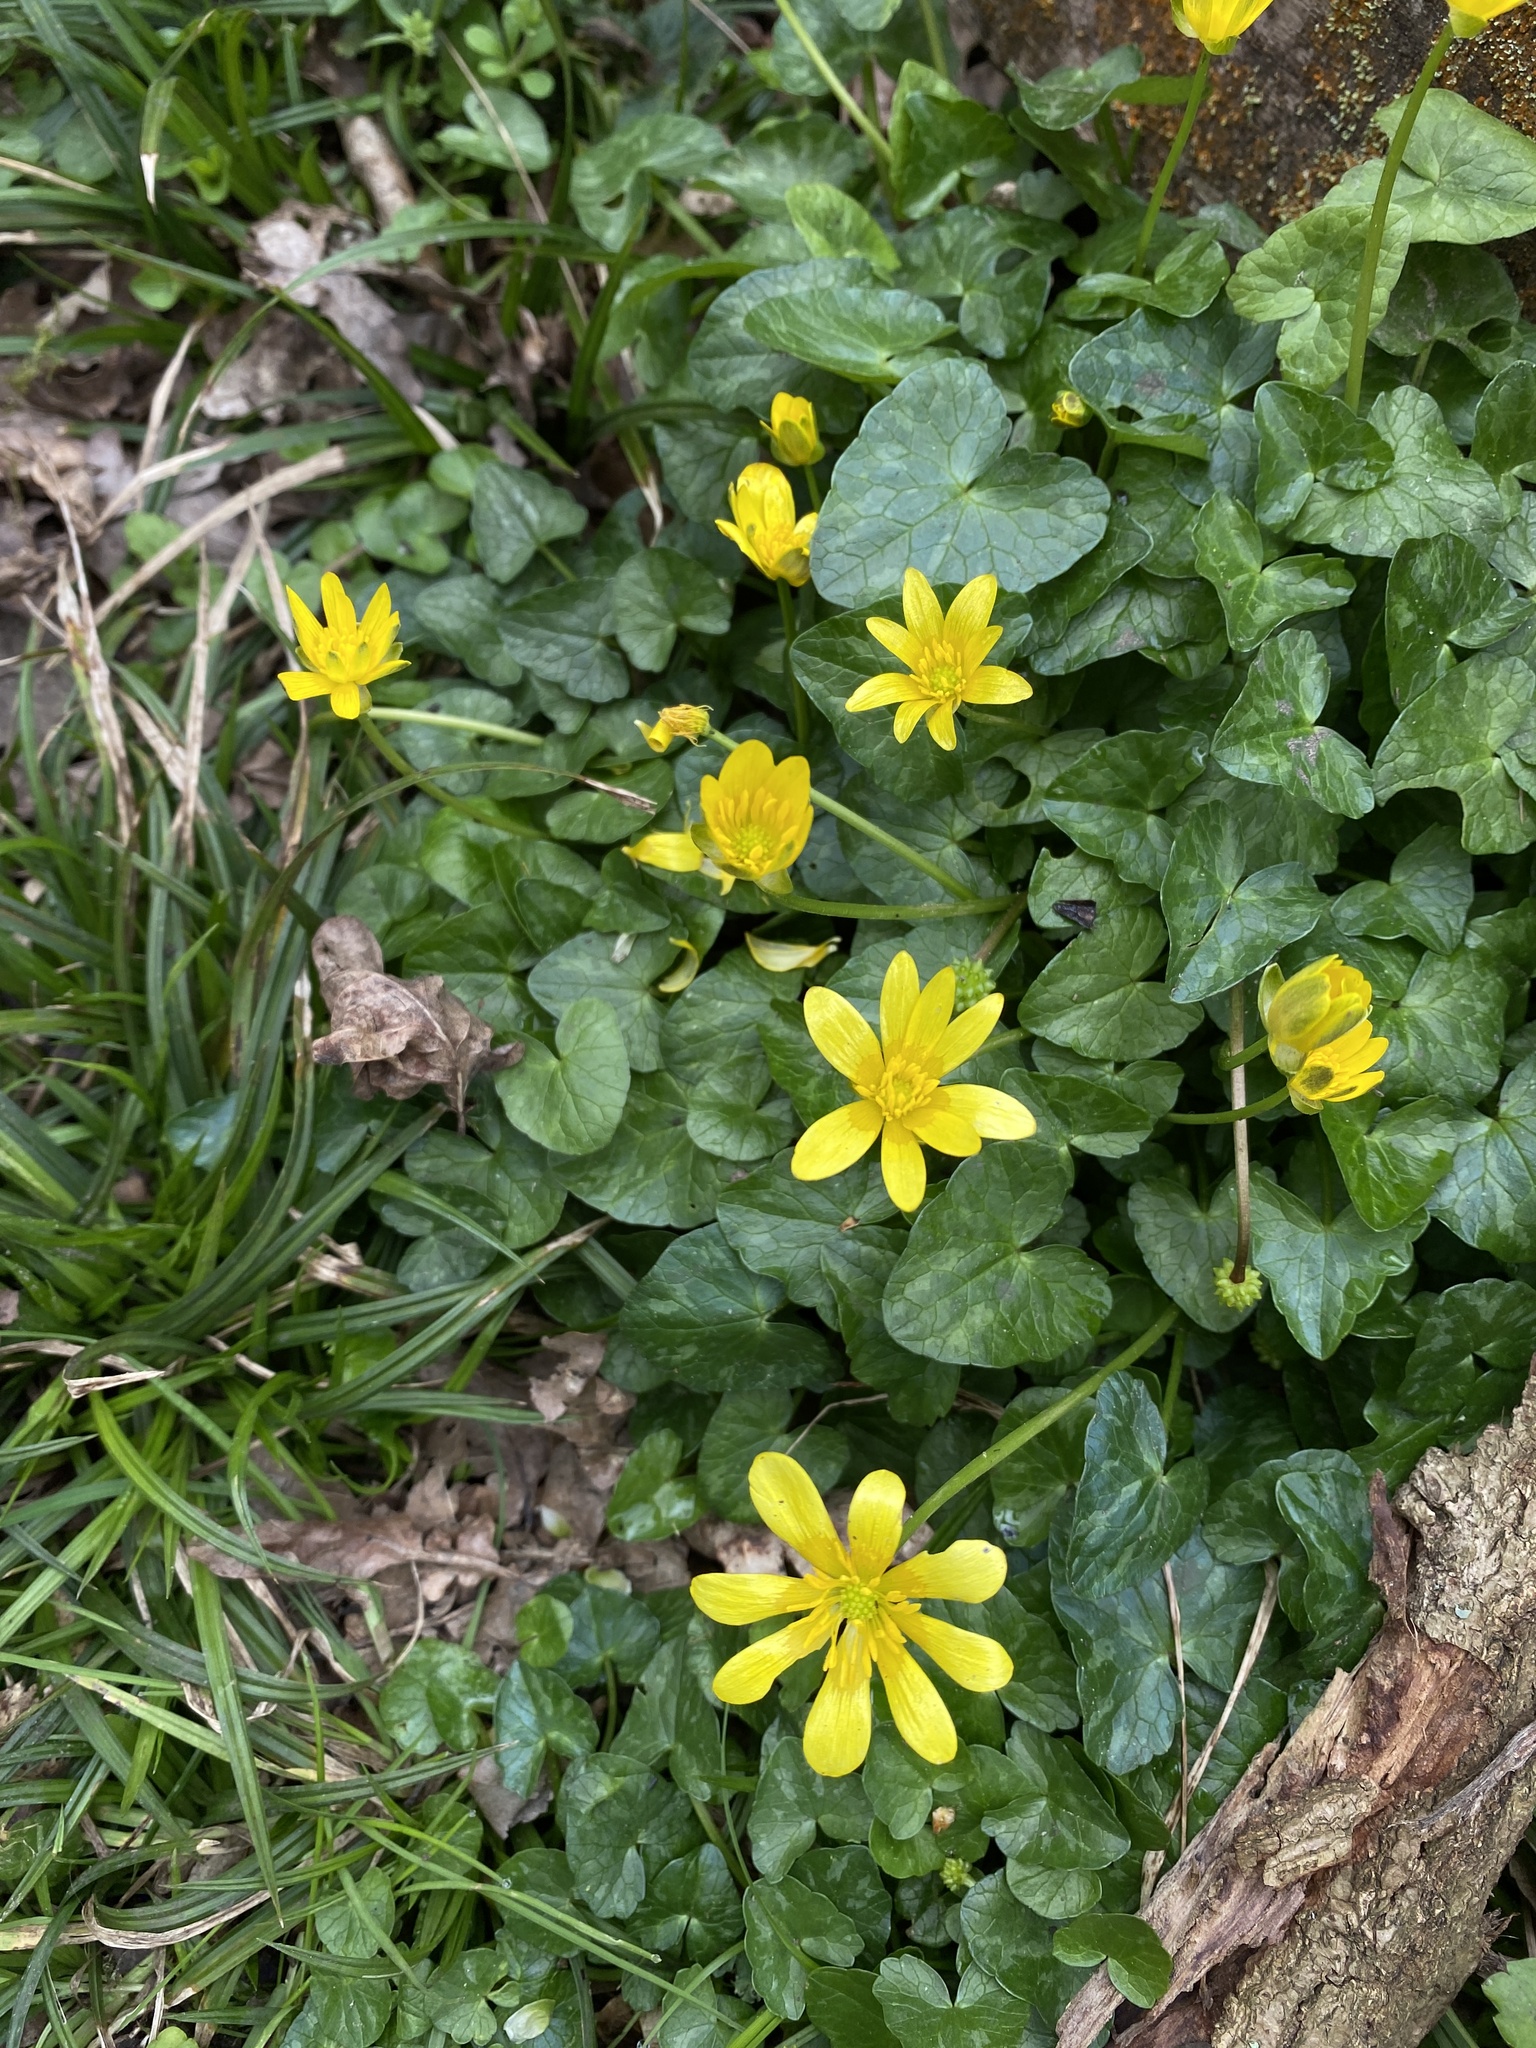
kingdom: Plantae
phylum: Tracheophyta
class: Magnoliopsida
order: Ranunculales
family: Ranunculaceae
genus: Ficaria
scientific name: Ficaria verna
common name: Lesser celandine
